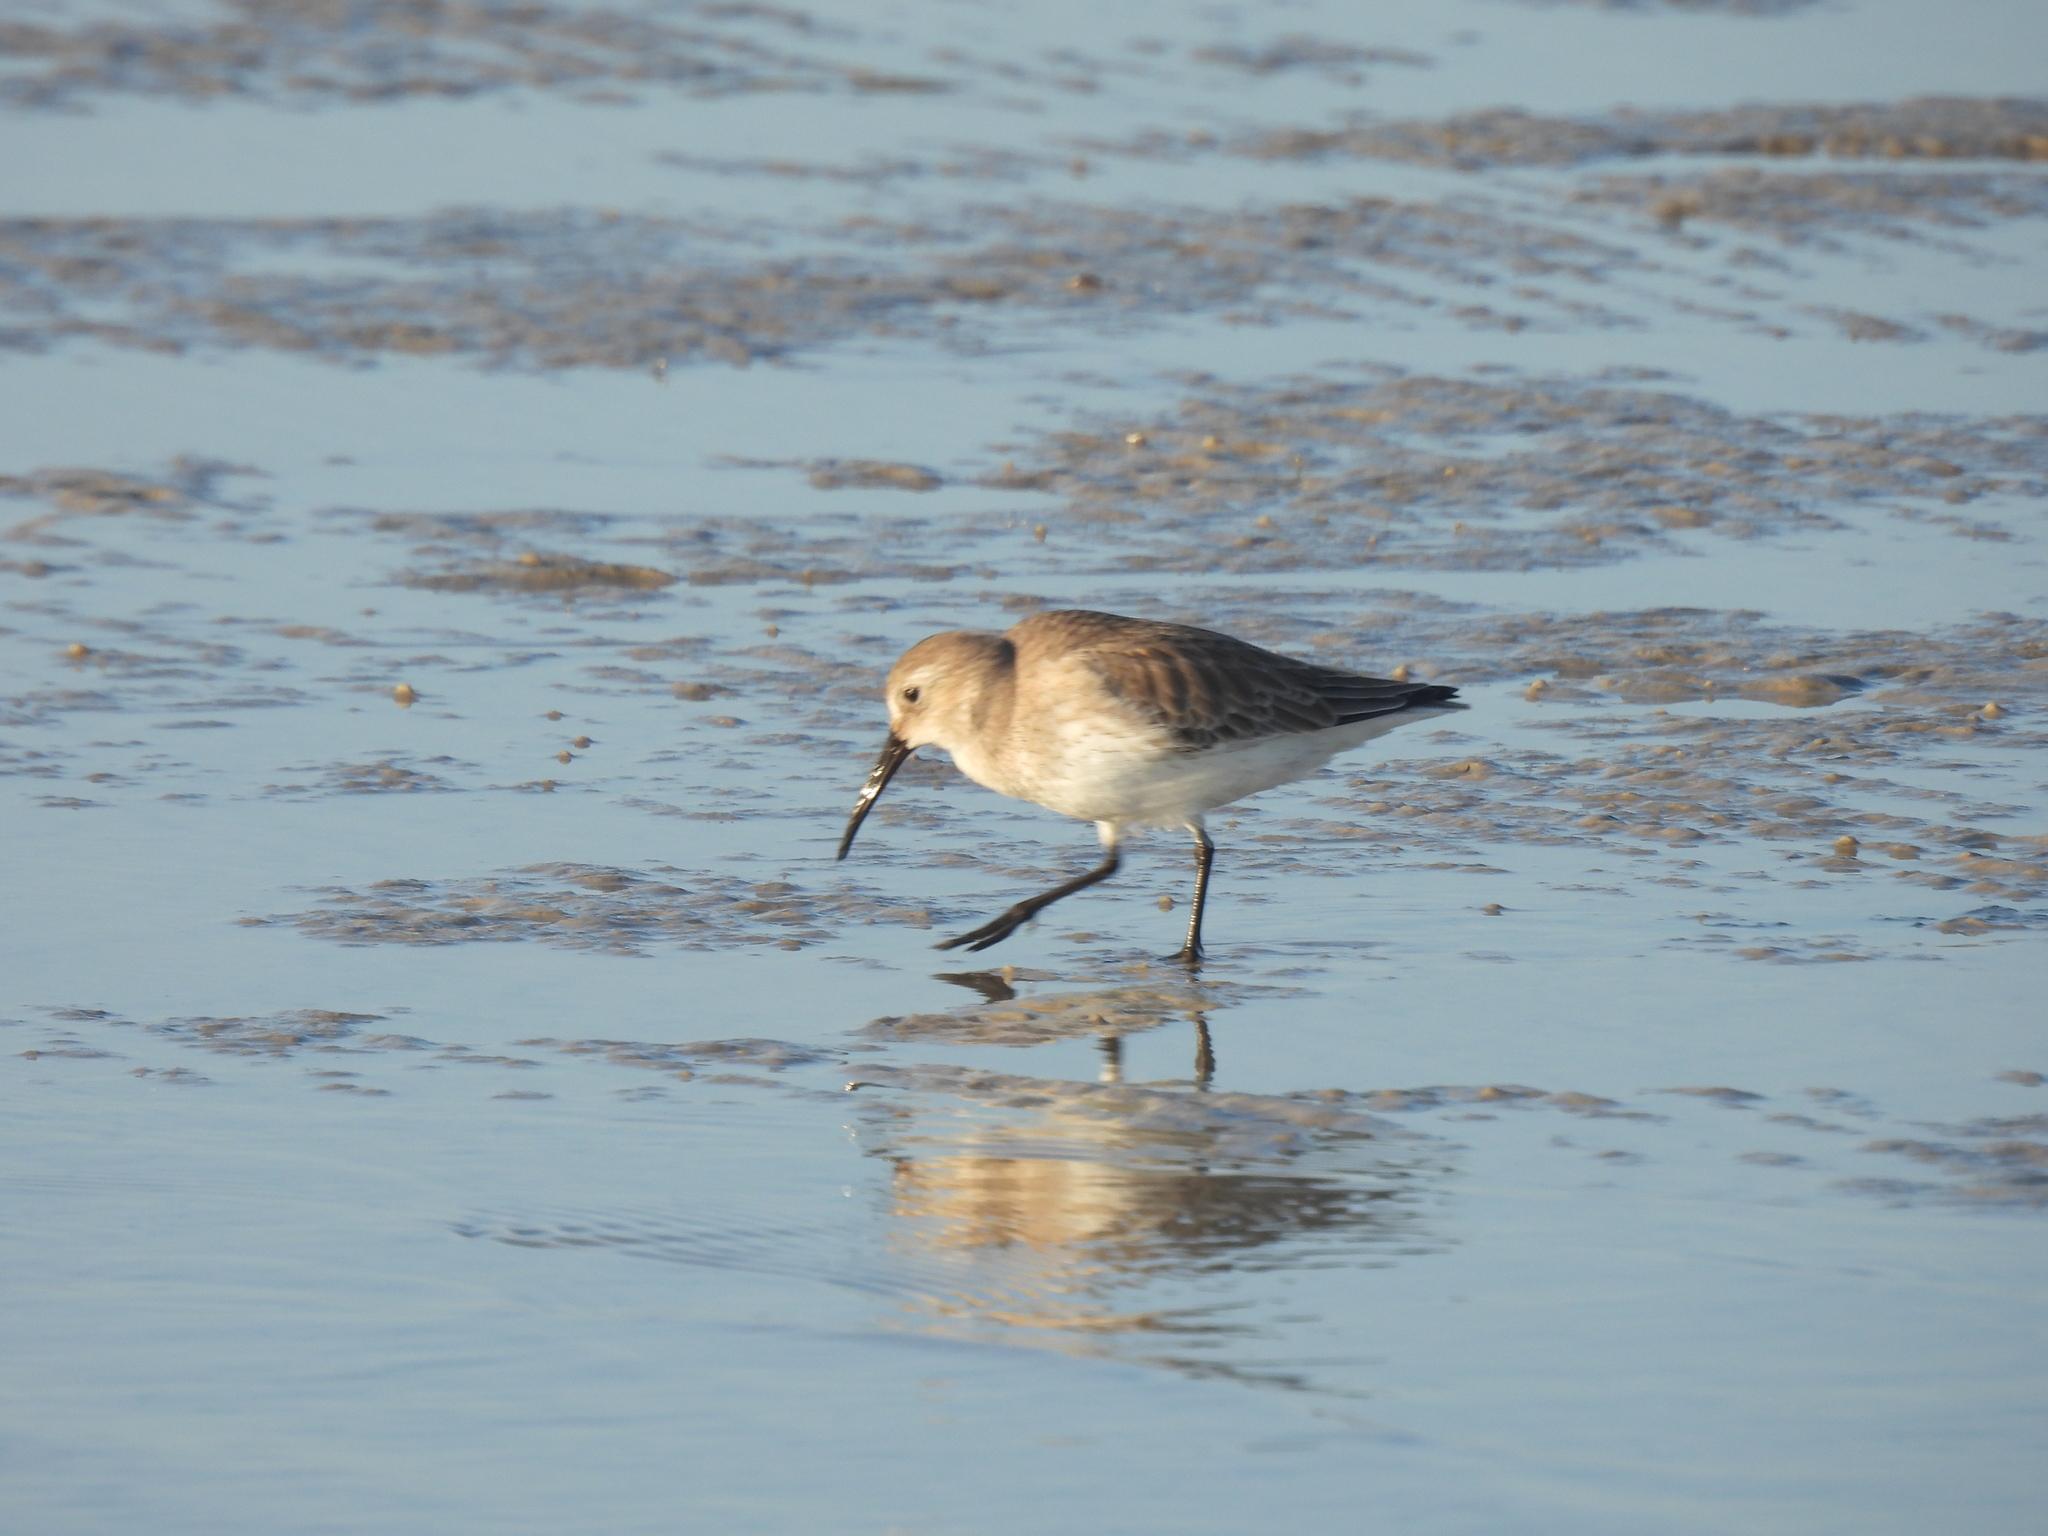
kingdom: Animalia
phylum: Chordata
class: Aves
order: Charadriiformes
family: Scolopacidae
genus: Calidris
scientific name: Calidris alpina
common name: Dunlin
